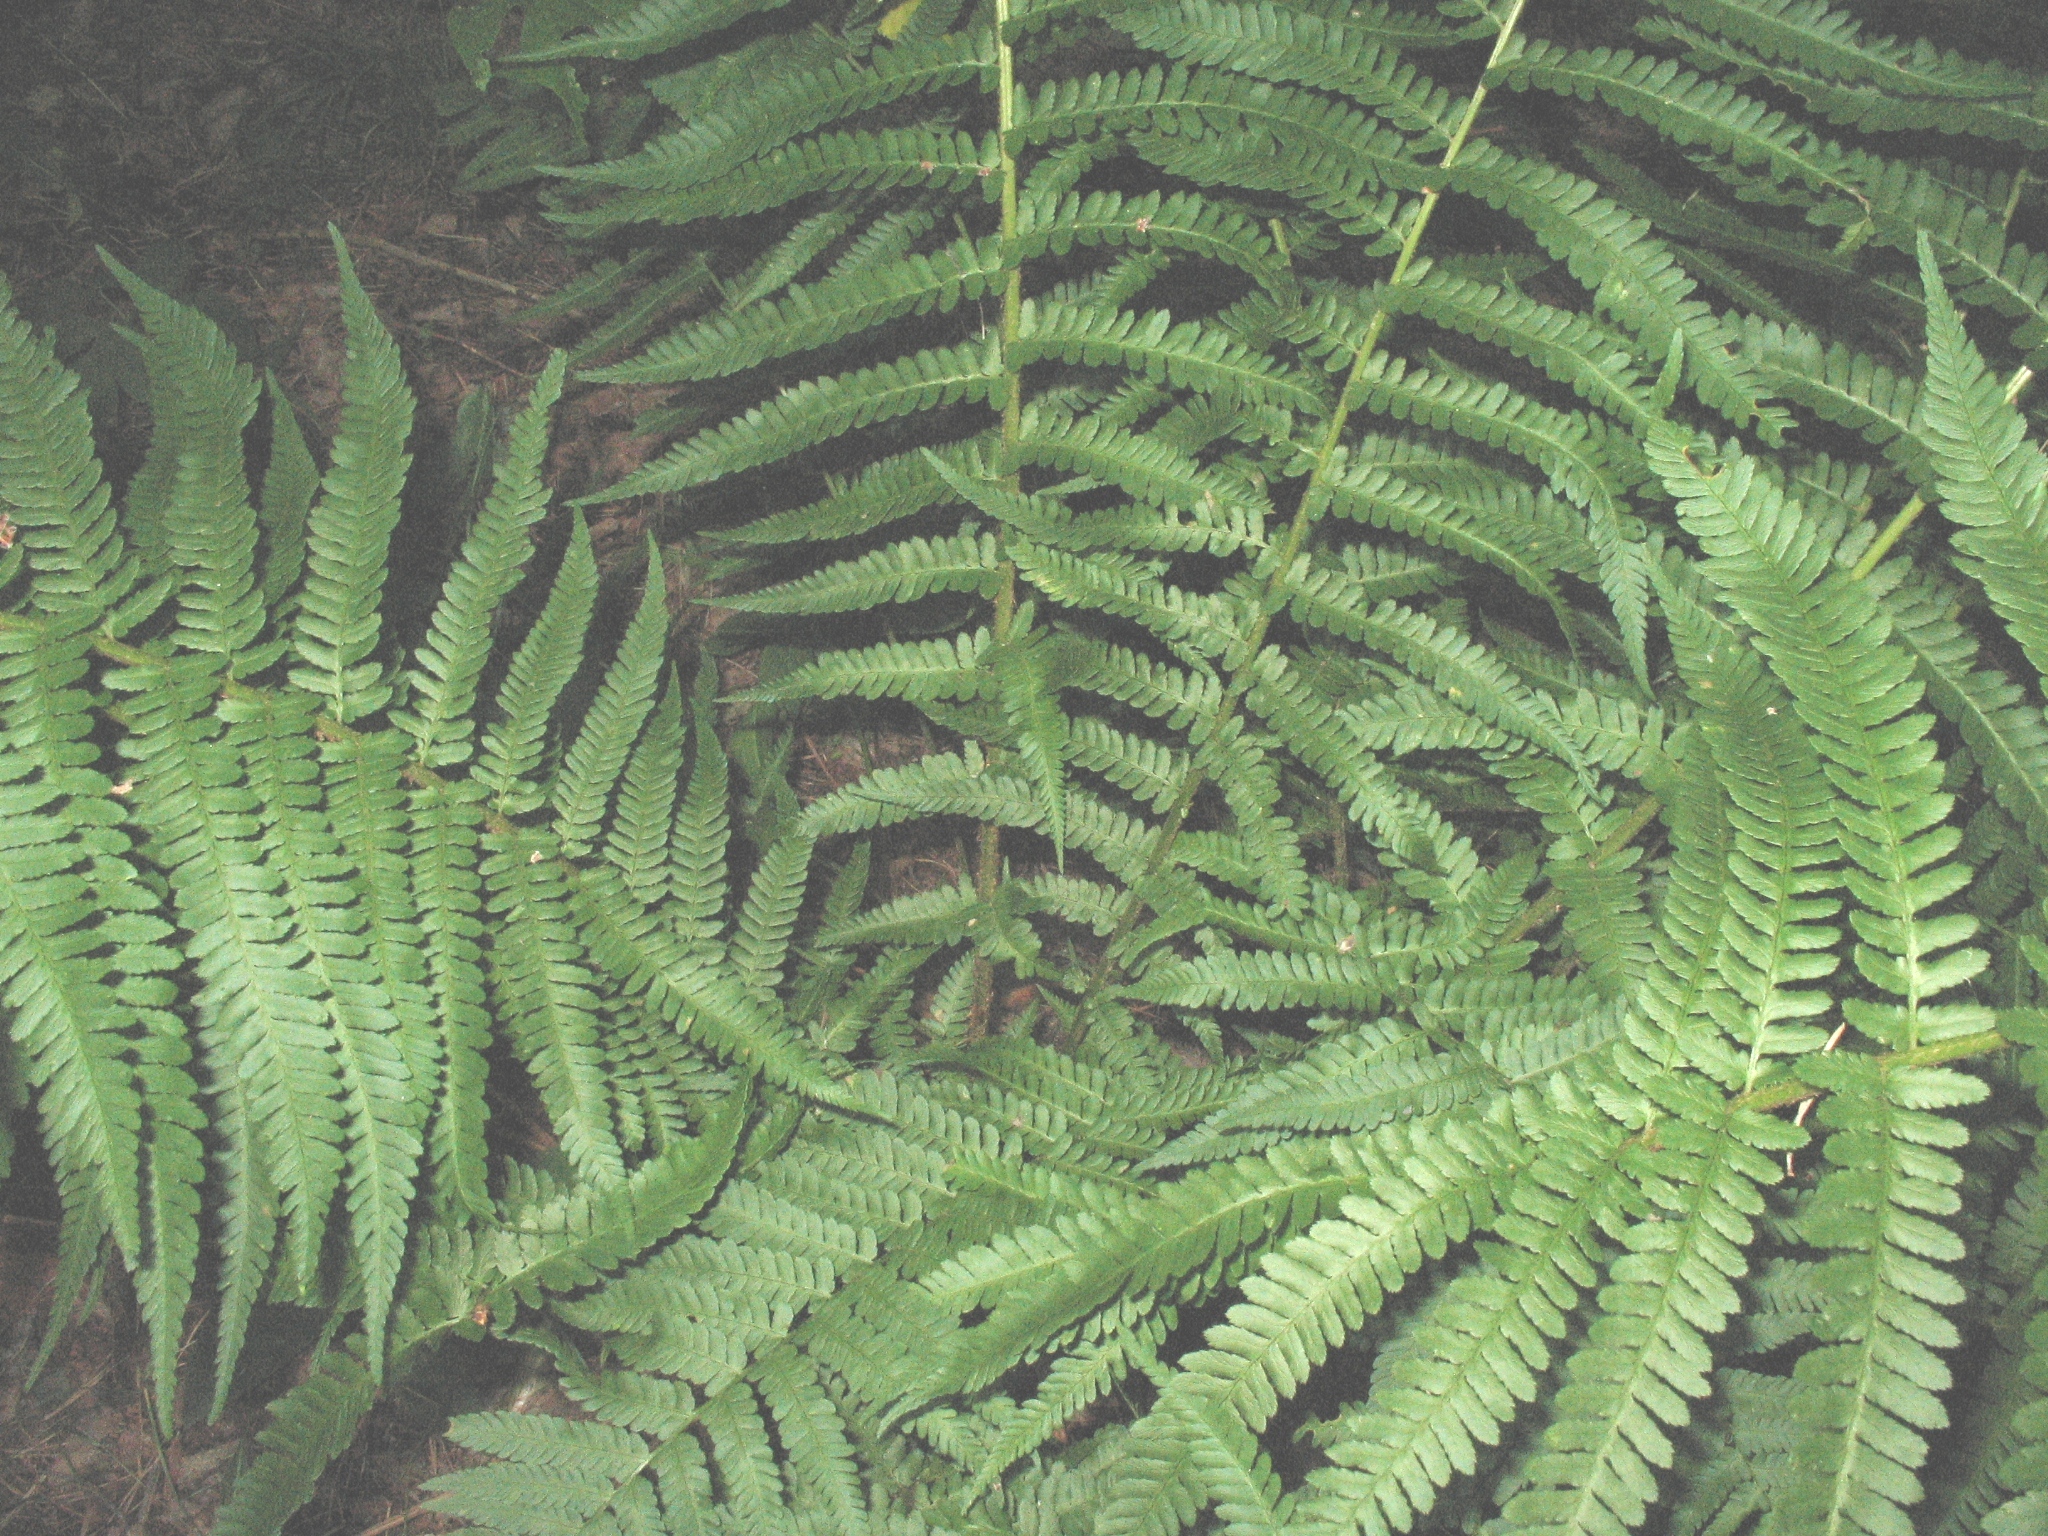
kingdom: Plantae
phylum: Tracheophyta
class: Polypodiopsida
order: Polypodiales
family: Dryopteridaceae
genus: Dryopteris
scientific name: Dryopteris filix-mas
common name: Male fern
